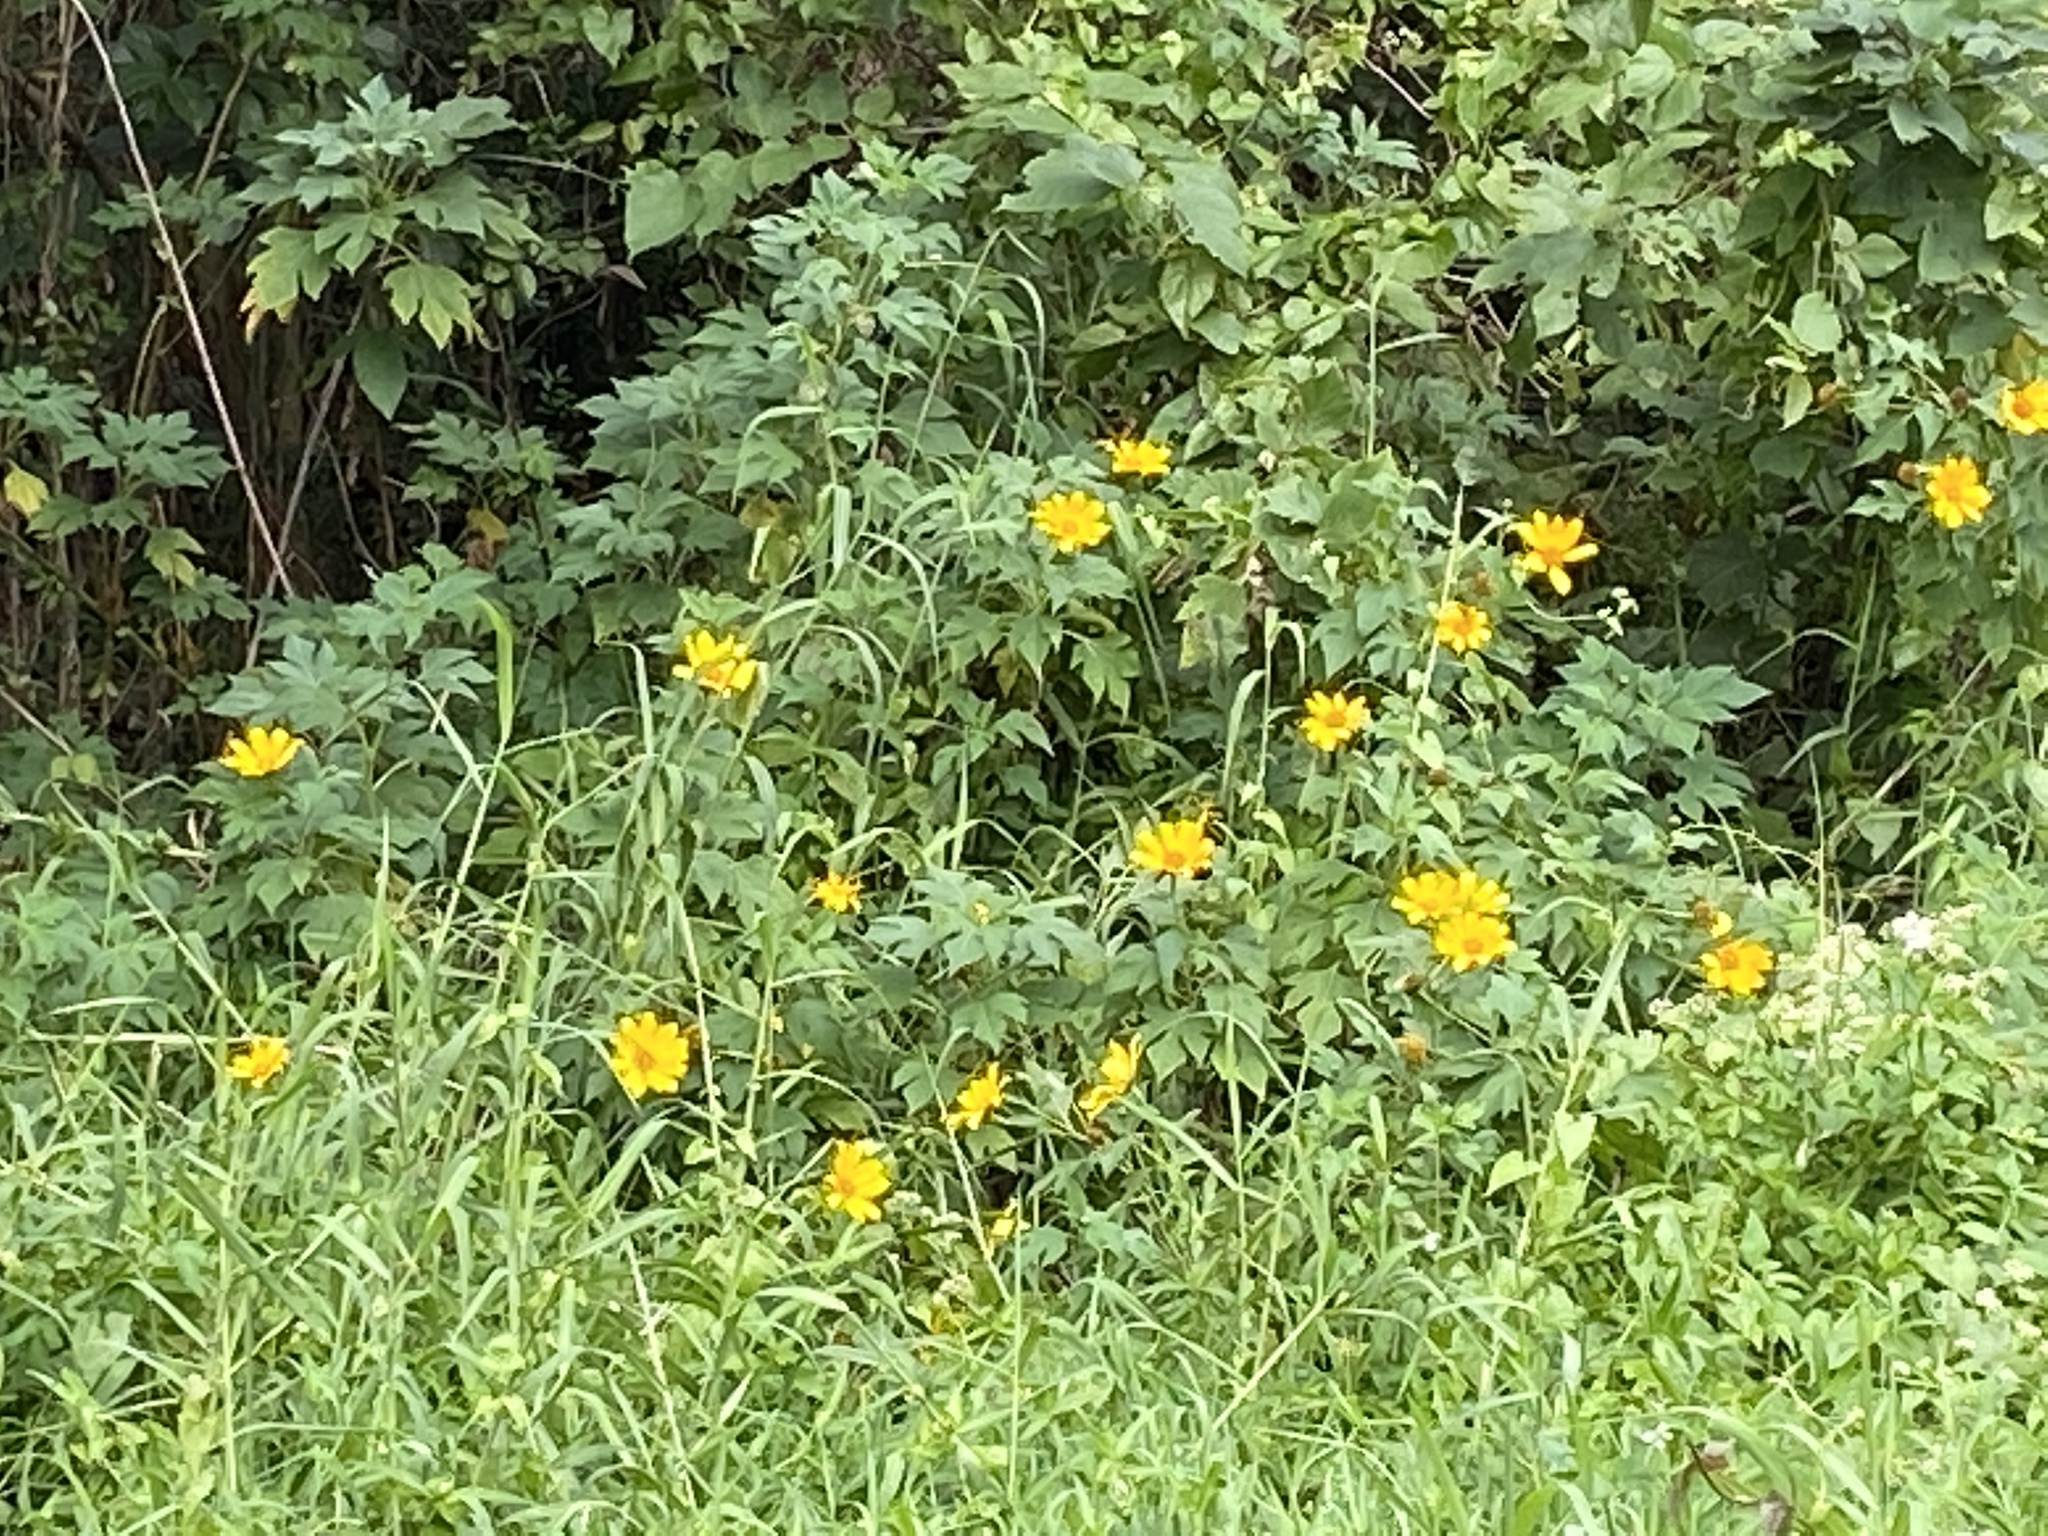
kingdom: Plantae
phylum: Tracheophyta
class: Magnoliopsida
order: Asterales
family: Asteraceae
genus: Tithonia
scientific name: Tithonia diversifolia
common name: Tree marigold
